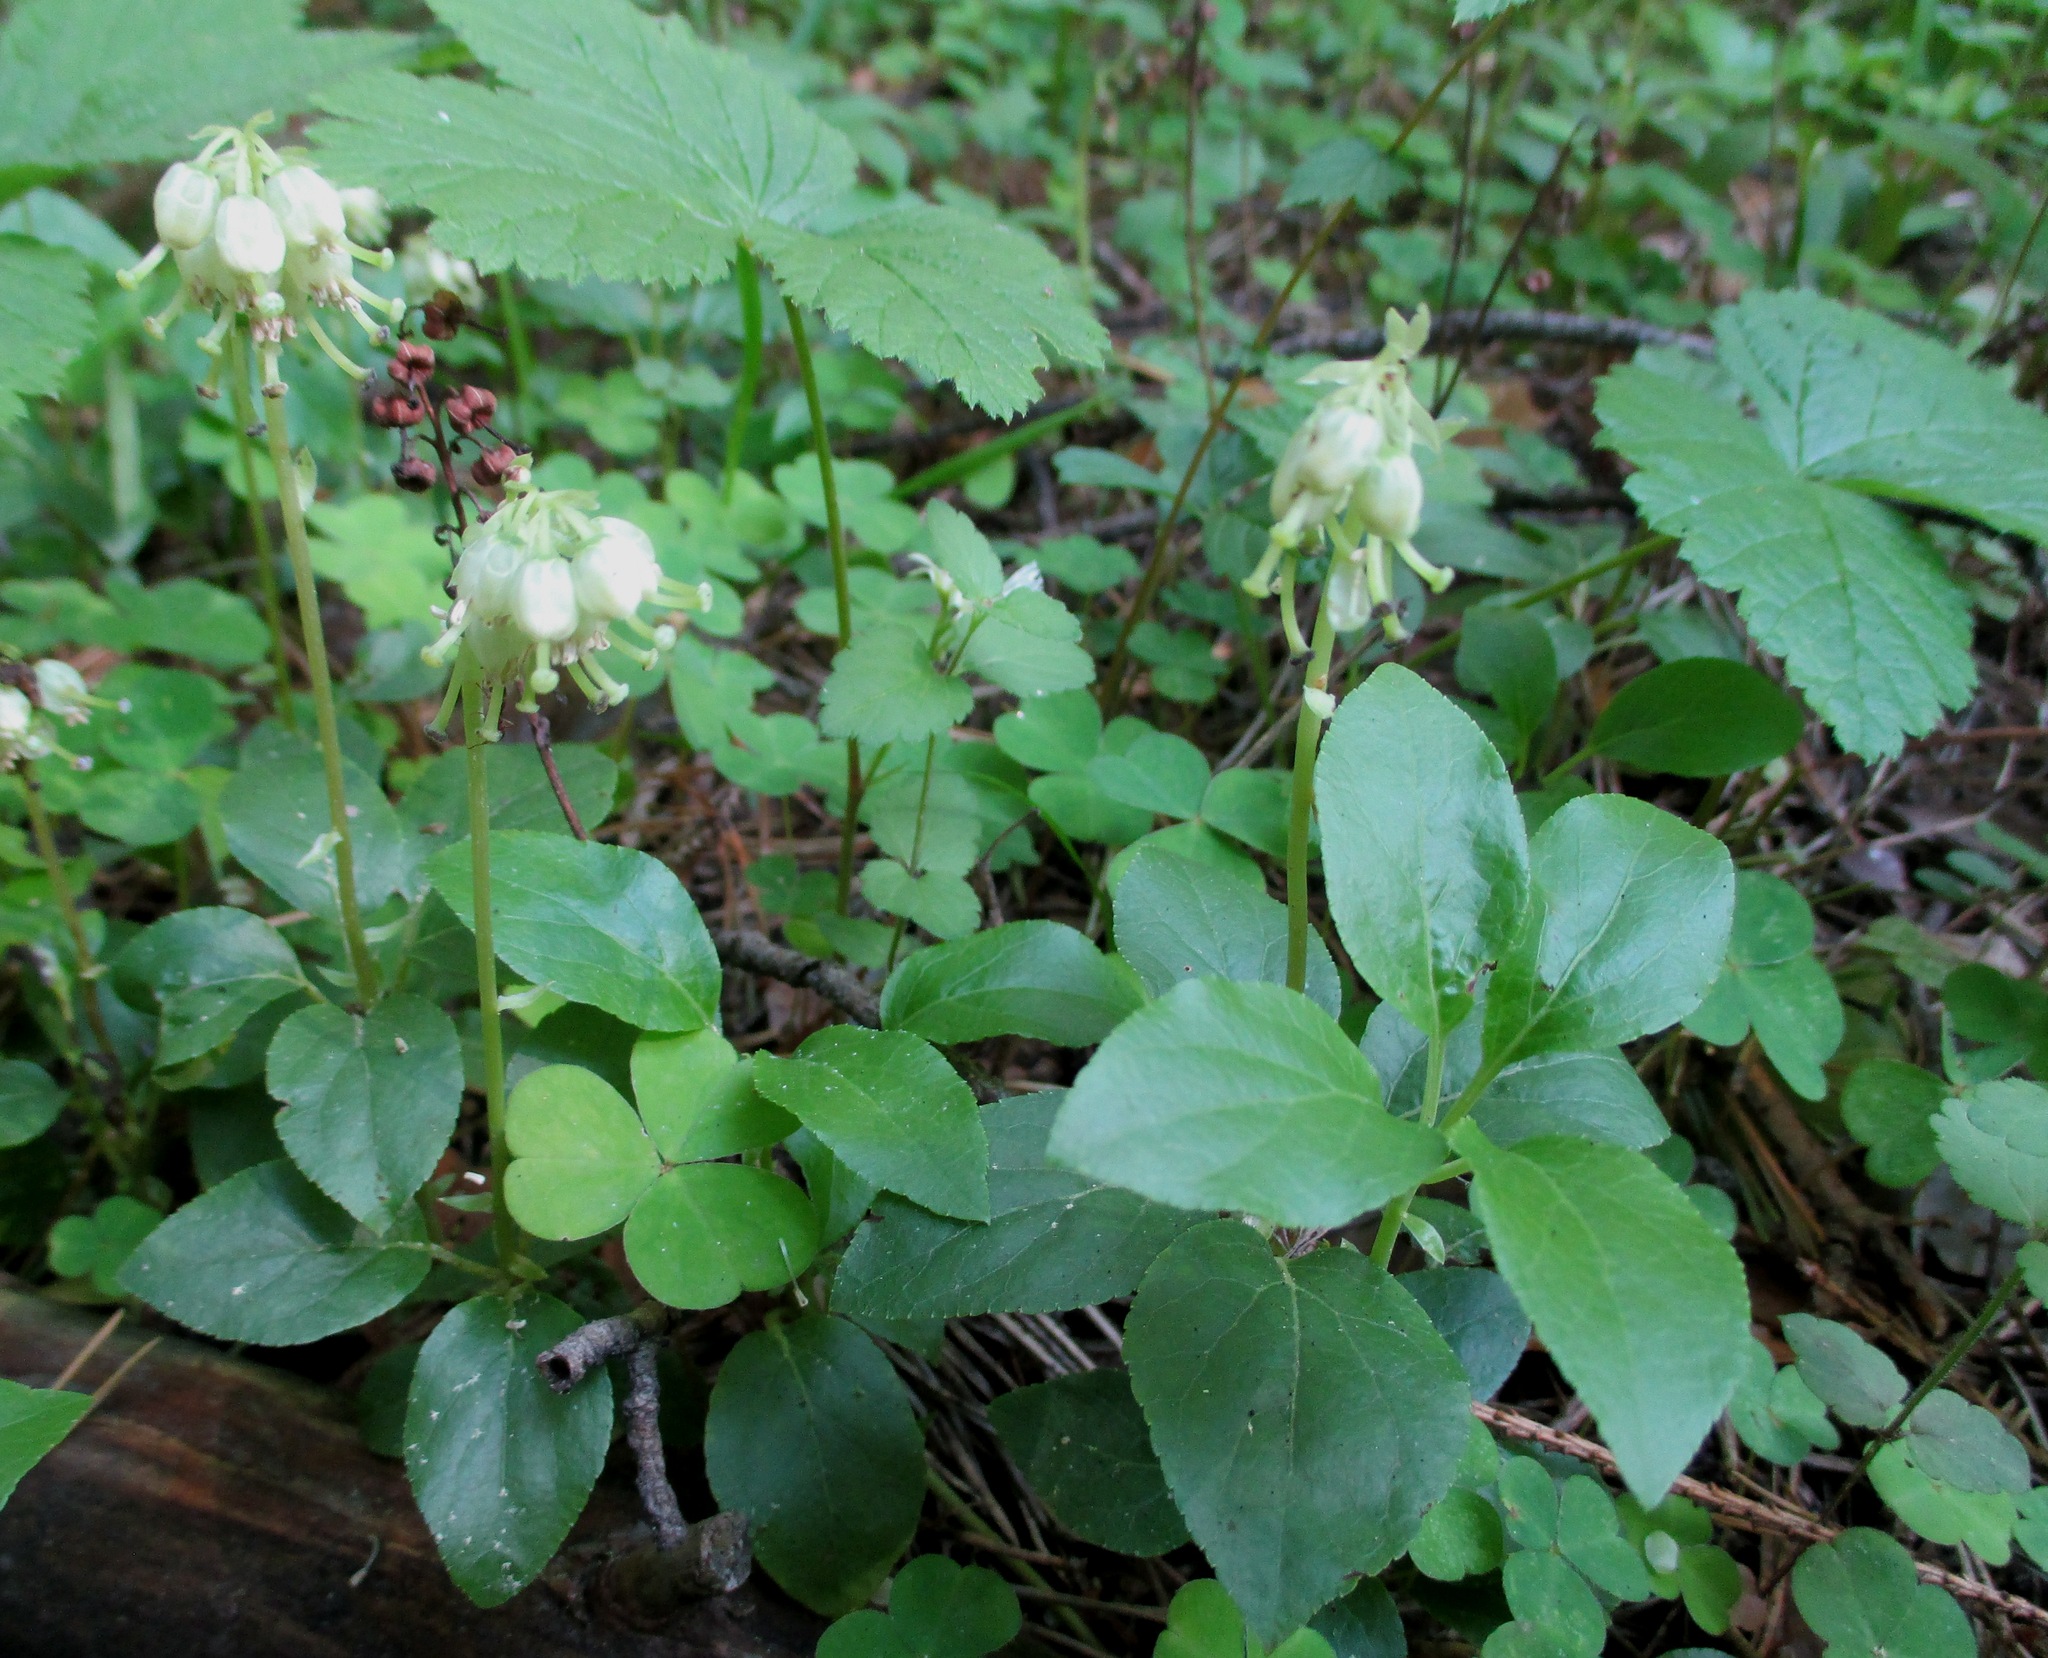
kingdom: Plantae
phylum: Tracheophyta
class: Magnoliopsida
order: Ericales
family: Ericaceae
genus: Orthilia
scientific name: Orthilia secunda
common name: One-sided orthilia
